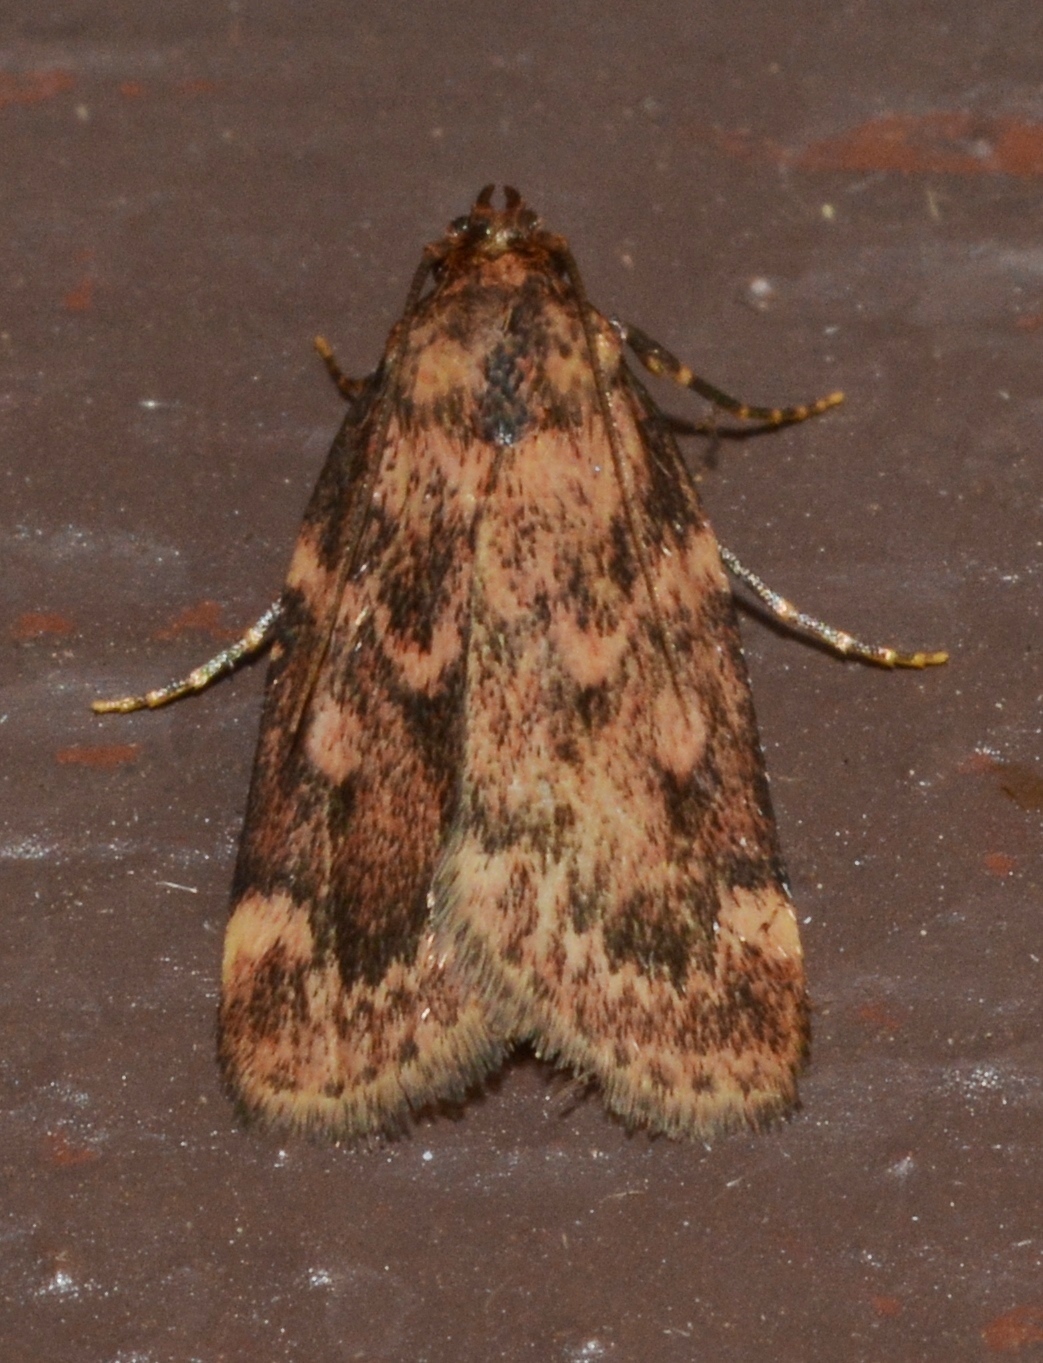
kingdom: Animalia
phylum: Arthropoda
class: Insecta
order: Lepidoptera
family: Pyralidae
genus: Aglossa
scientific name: Aglossa cuprina
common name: Grease moth
